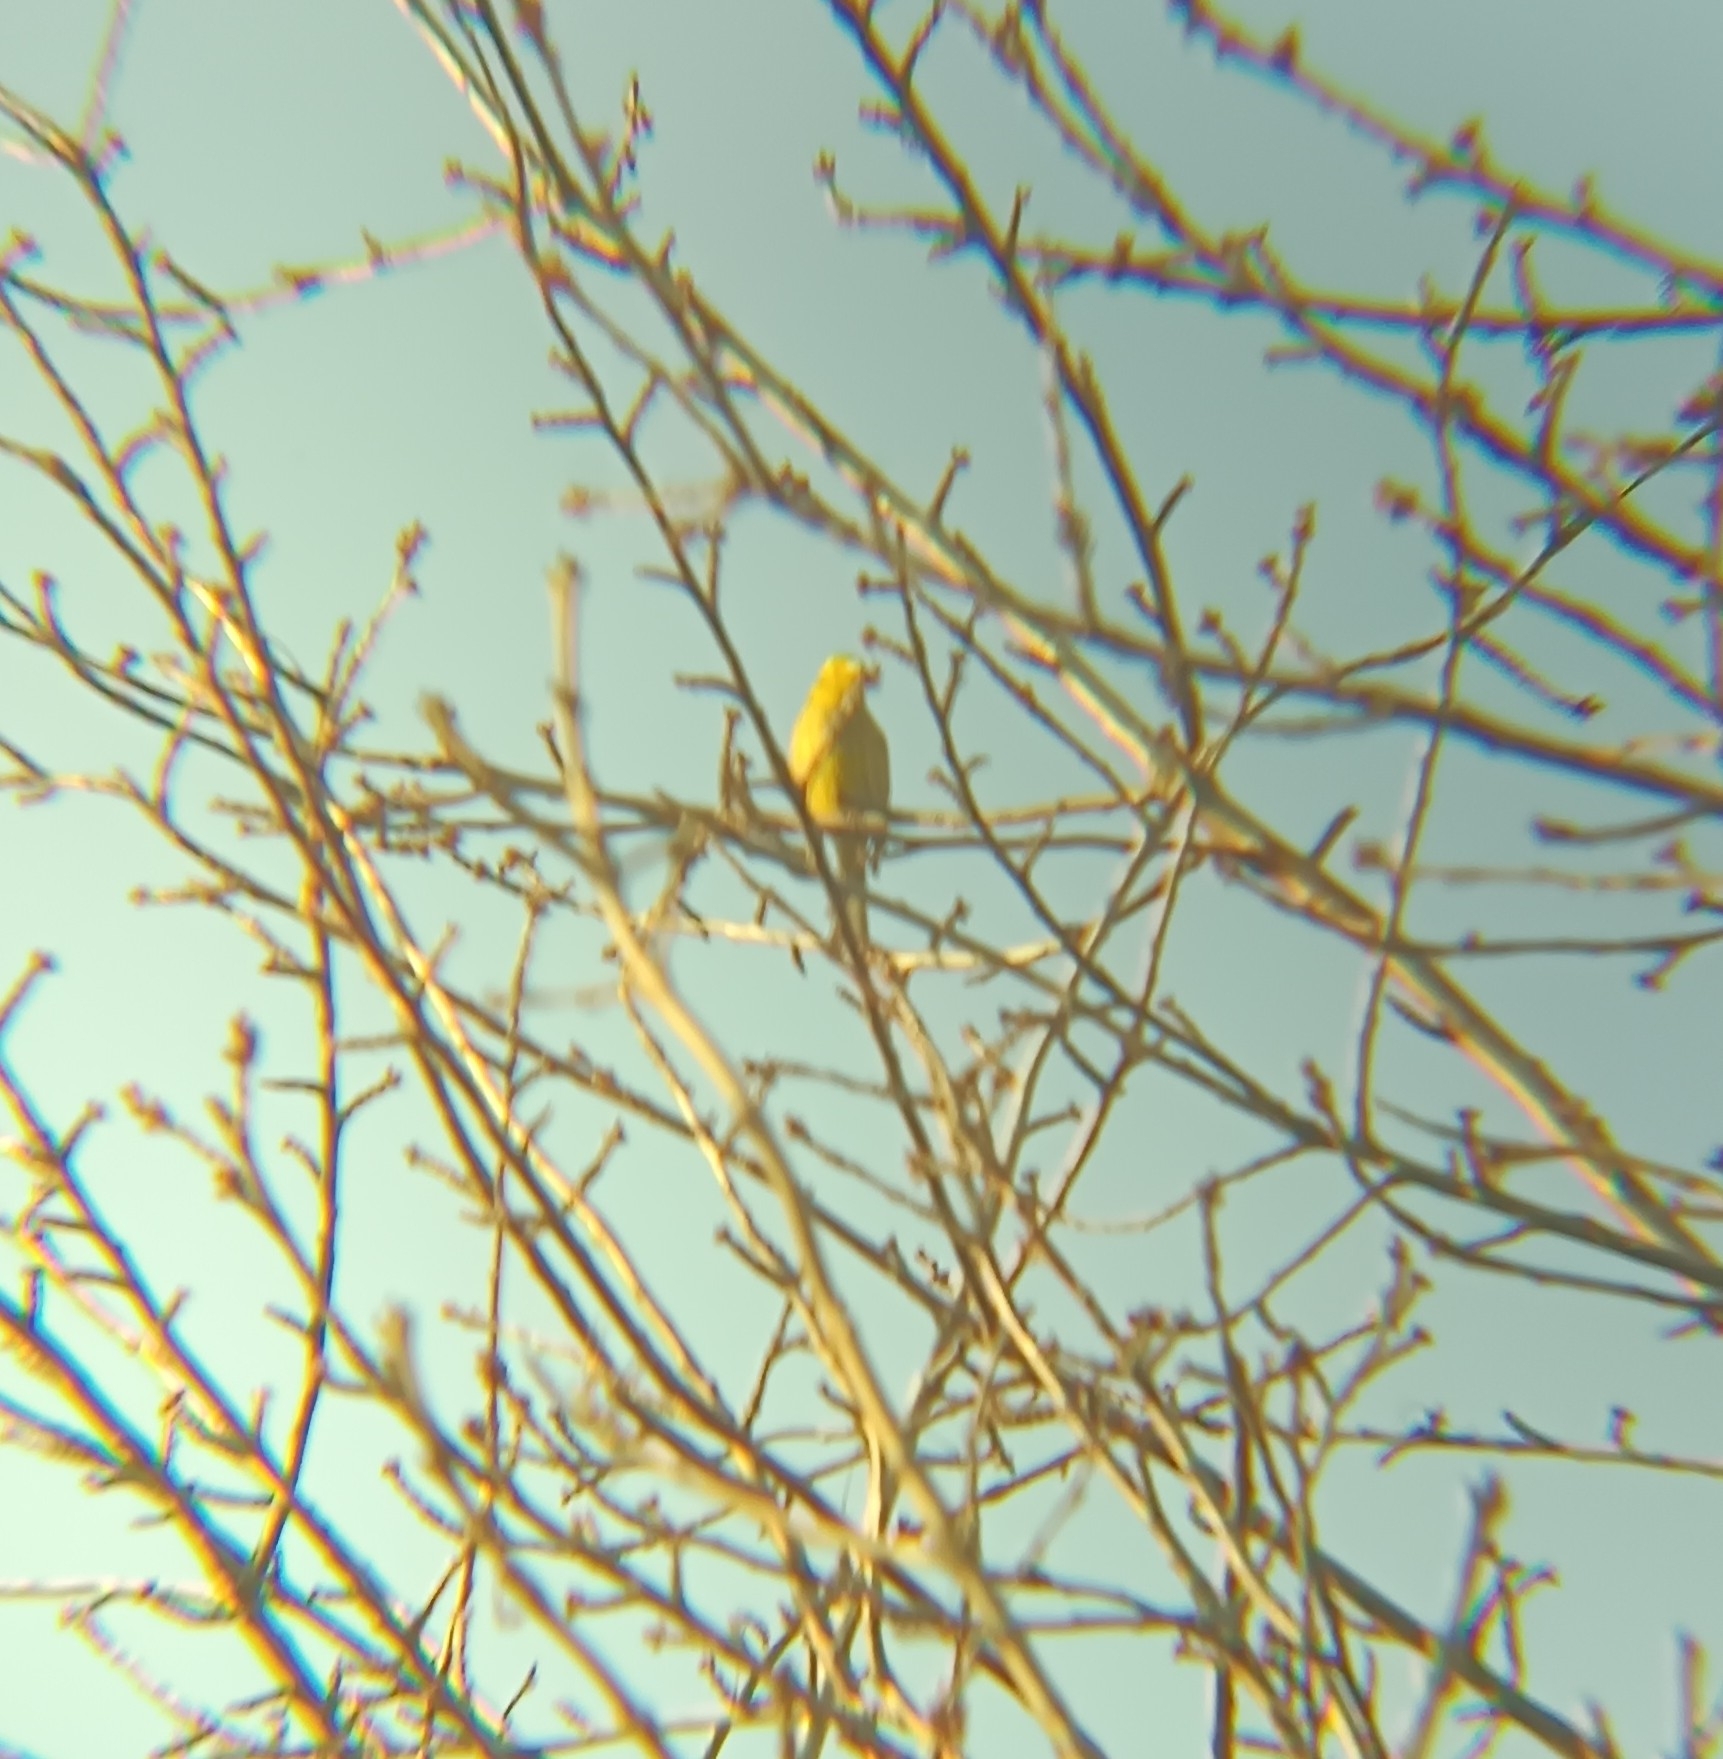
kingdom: Animalia
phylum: Chordata
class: Aves
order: Passeriformes
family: Emberizidae
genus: Emberiza
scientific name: Emberiza citrinella
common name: Yellowhammer
